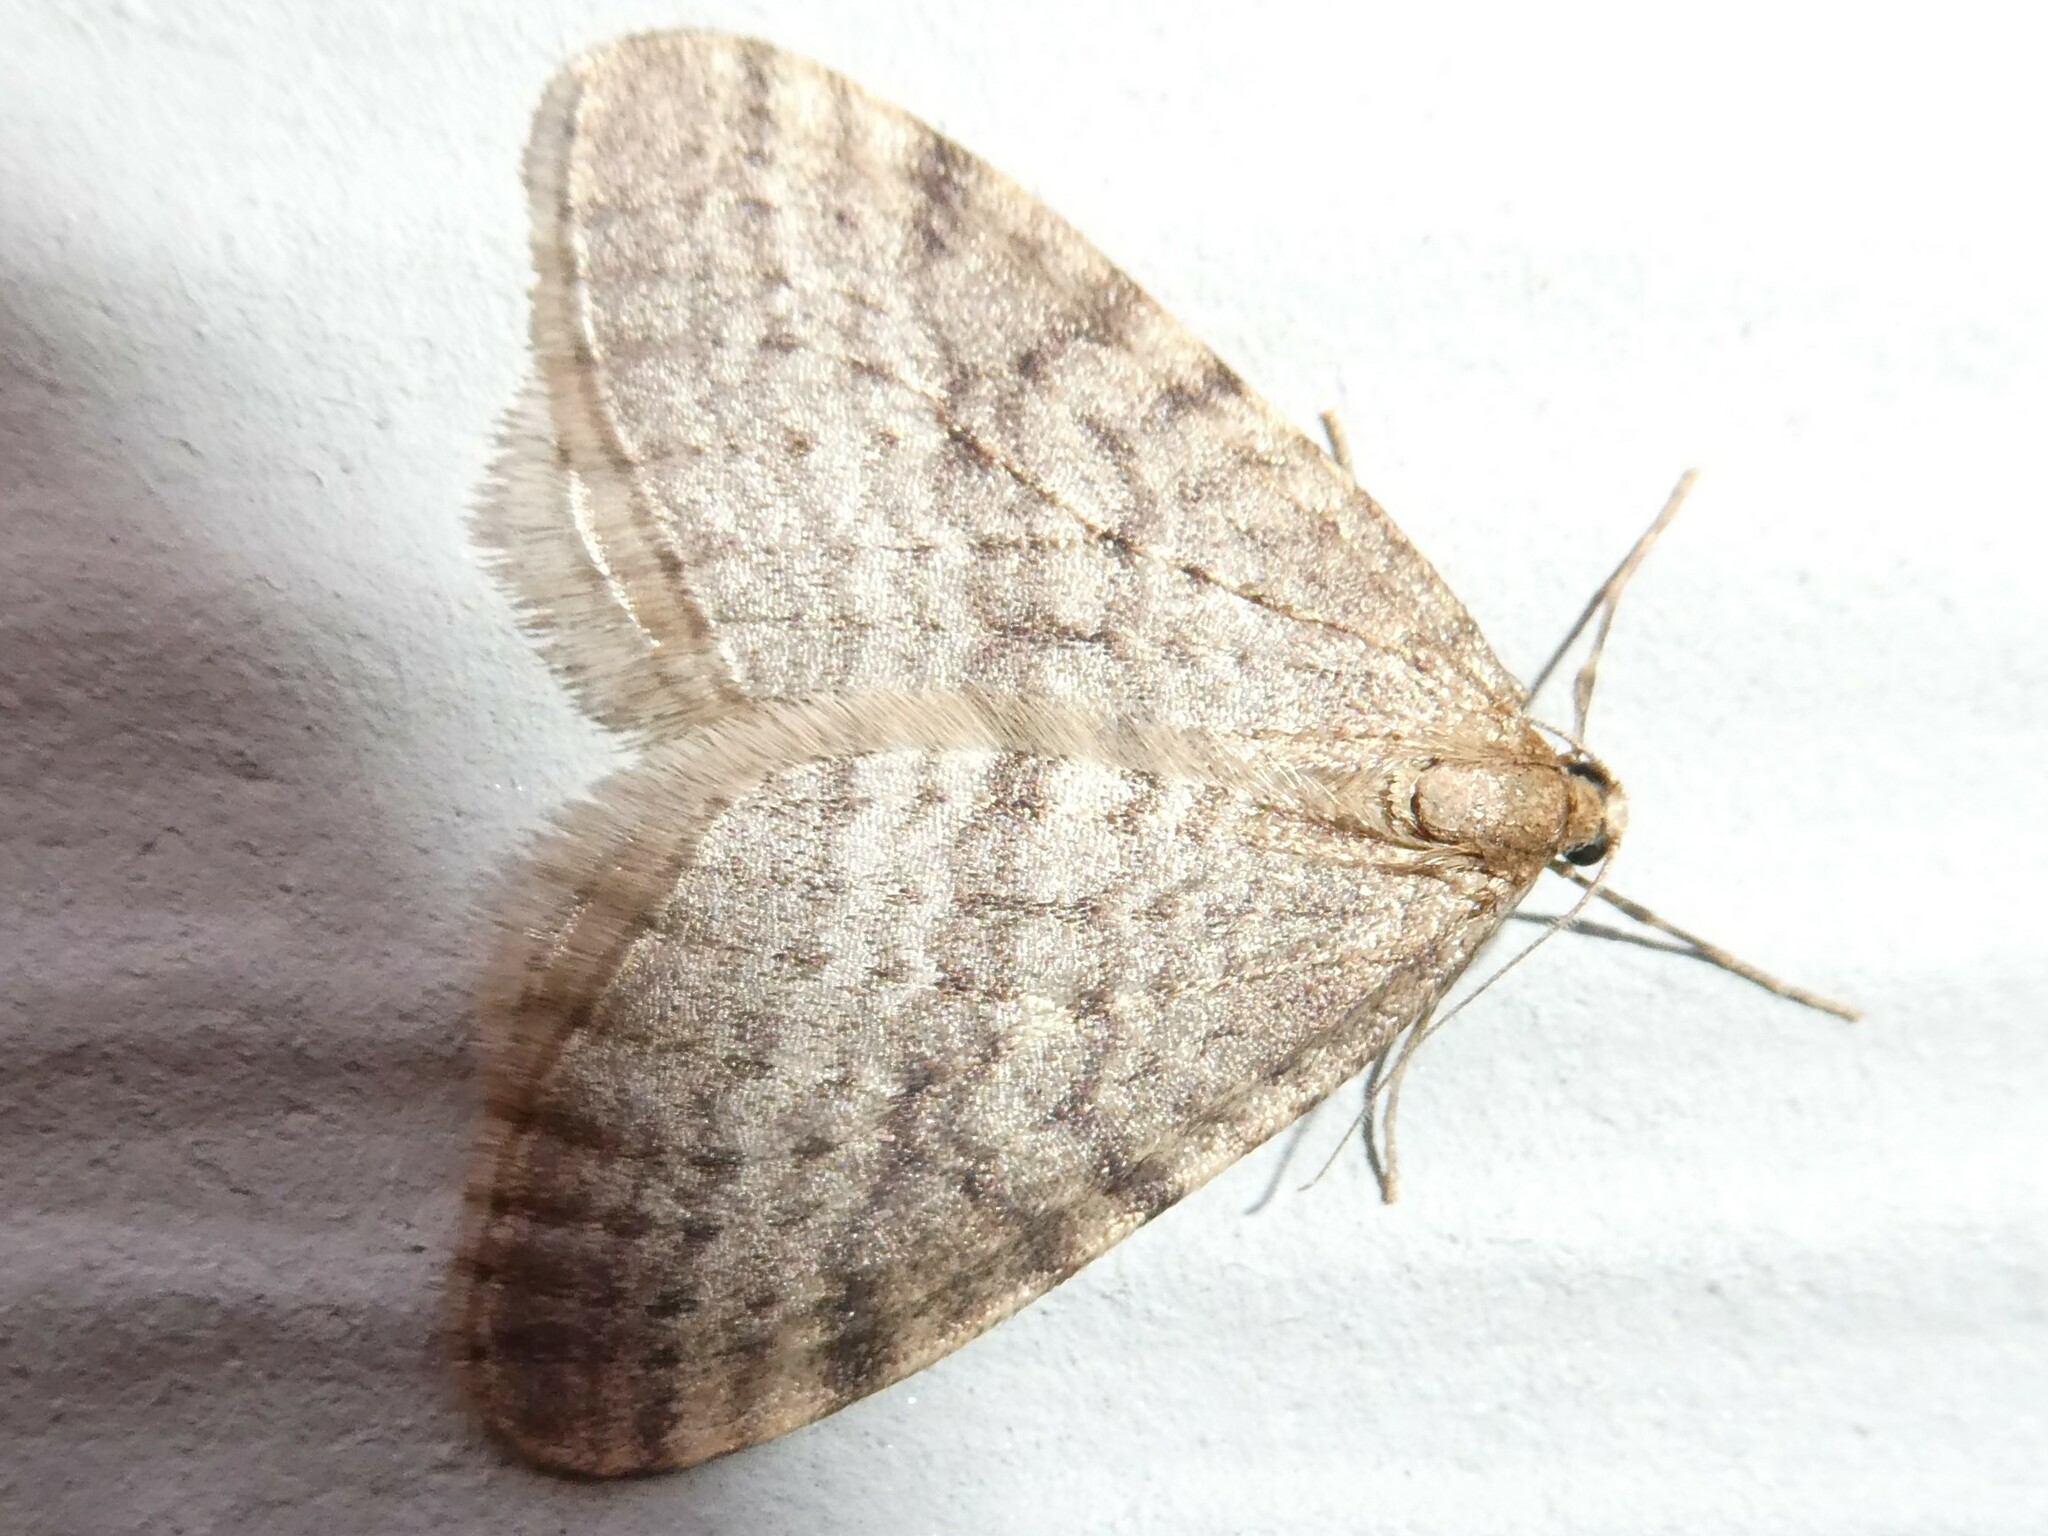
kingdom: Animalia
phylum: Arthropoda
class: Insecta
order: Lepidoptera
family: Geometridae
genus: Operophtera
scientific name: Operophtera bruceata
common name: Bruce spanworm
